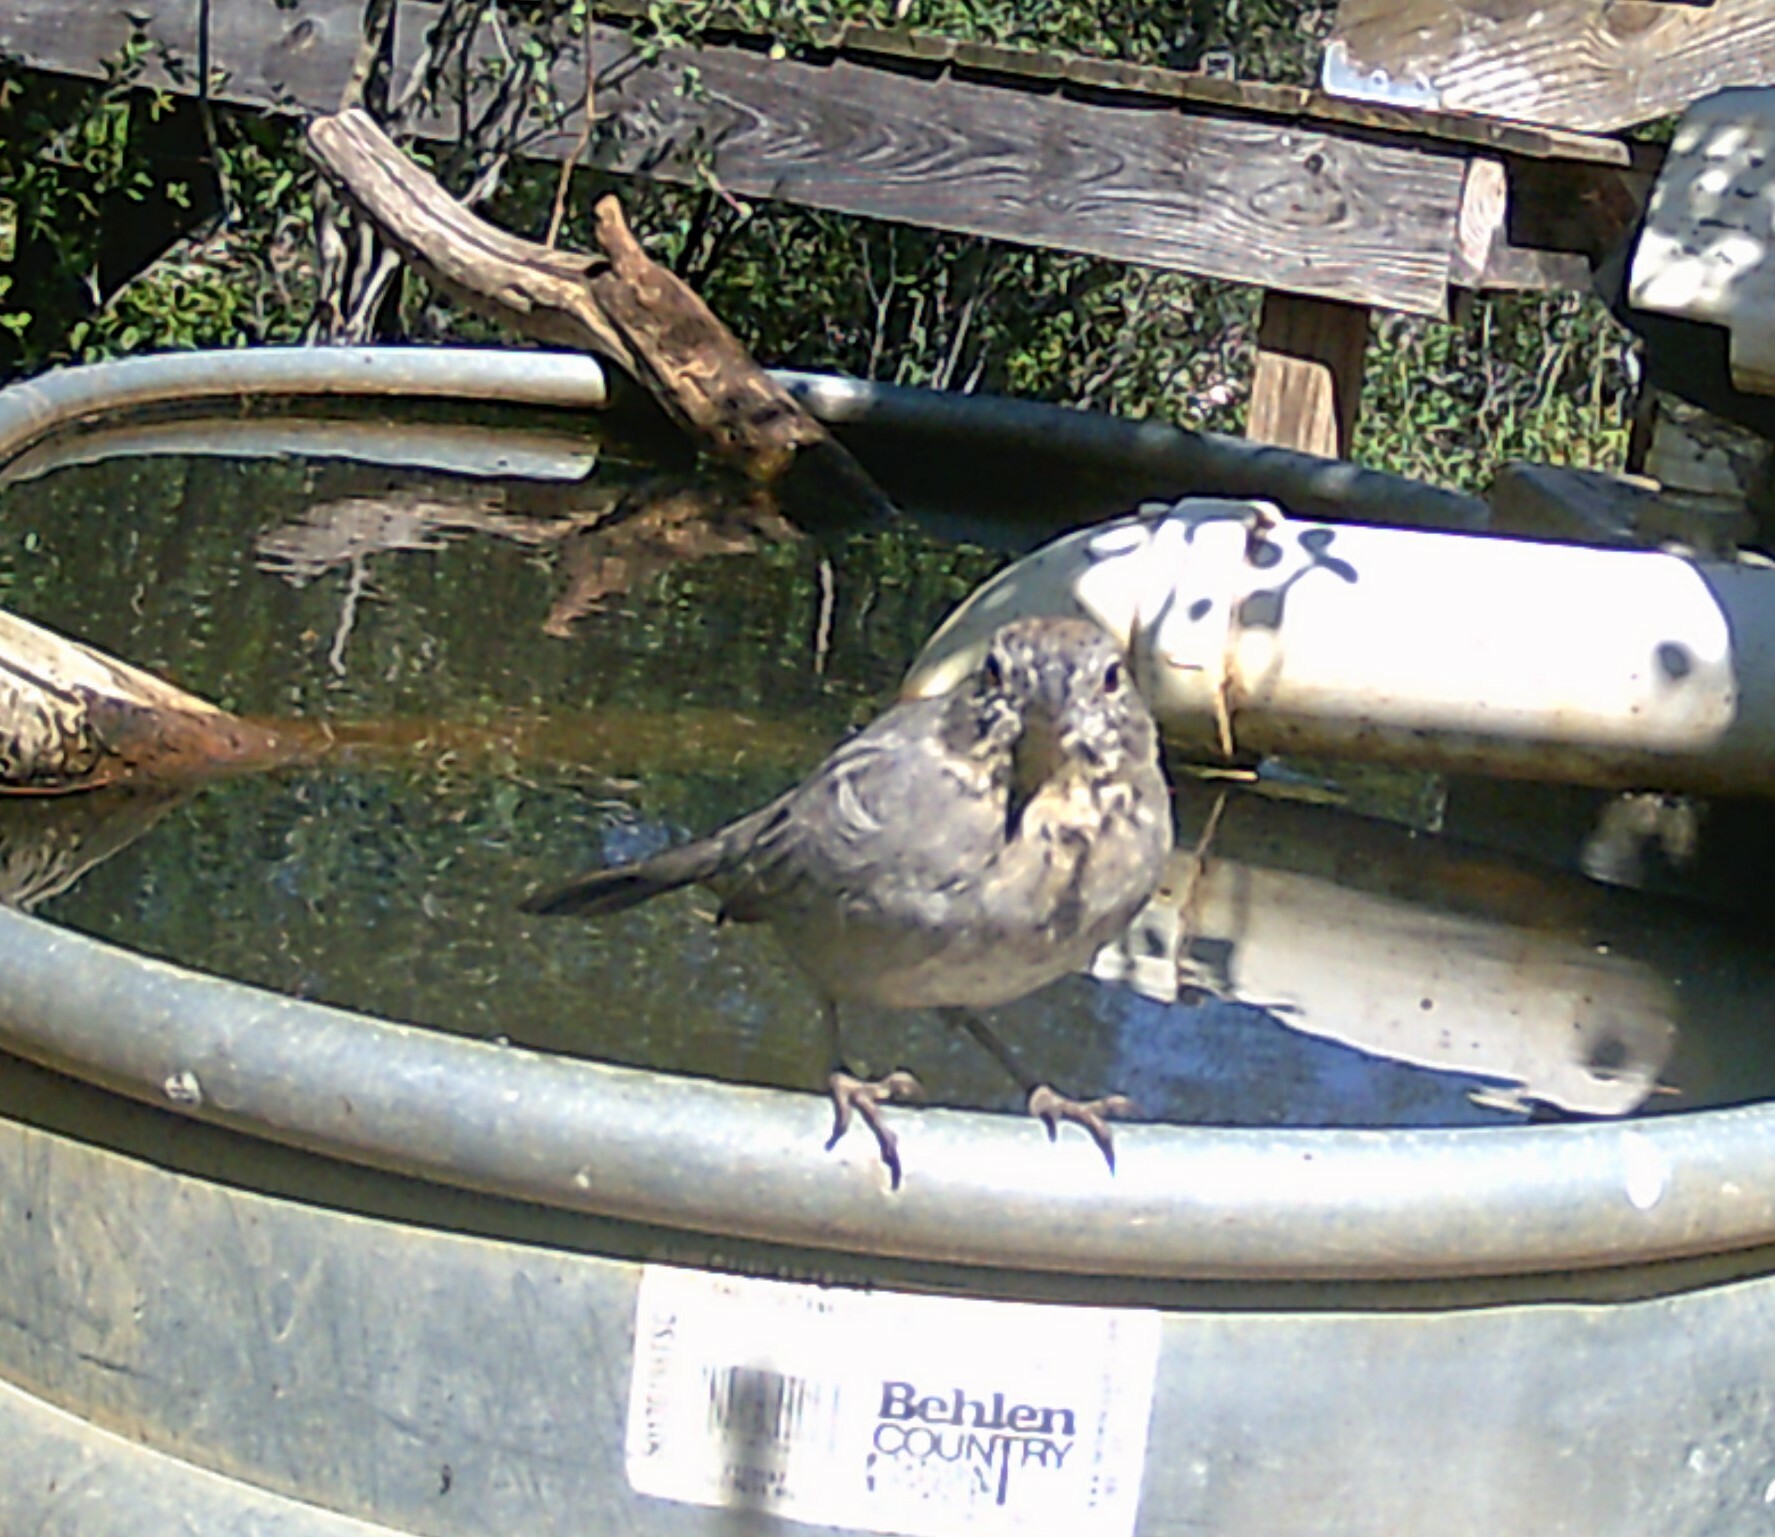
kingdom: Animalia
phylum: Chordata
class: Aves
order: Passeriformes
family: Passerellidae
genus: Melozone
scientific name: Melozone fusca
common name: Canyon towhee
